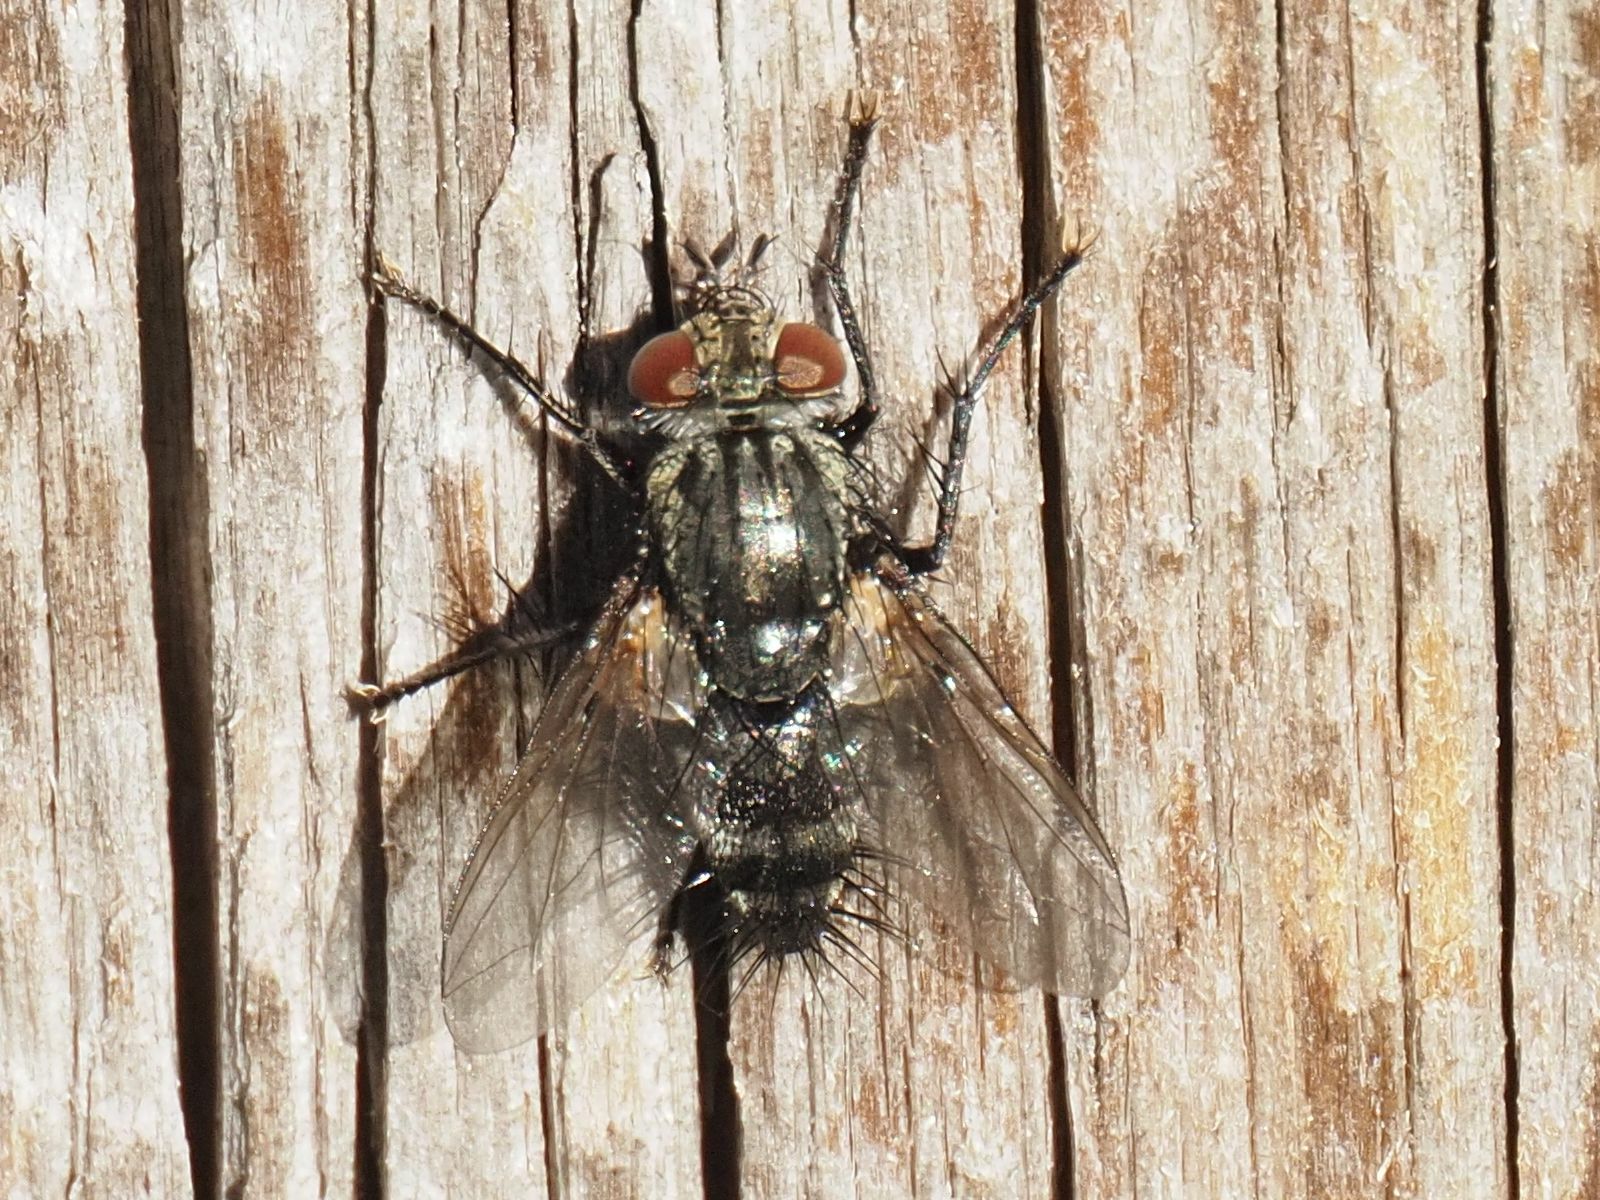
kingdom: Animalia
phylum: Arthropoda
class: Insecta
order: Diptera
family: Tachinidae
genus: Voria
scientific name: Voria ruralis
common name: Parasitic fly
